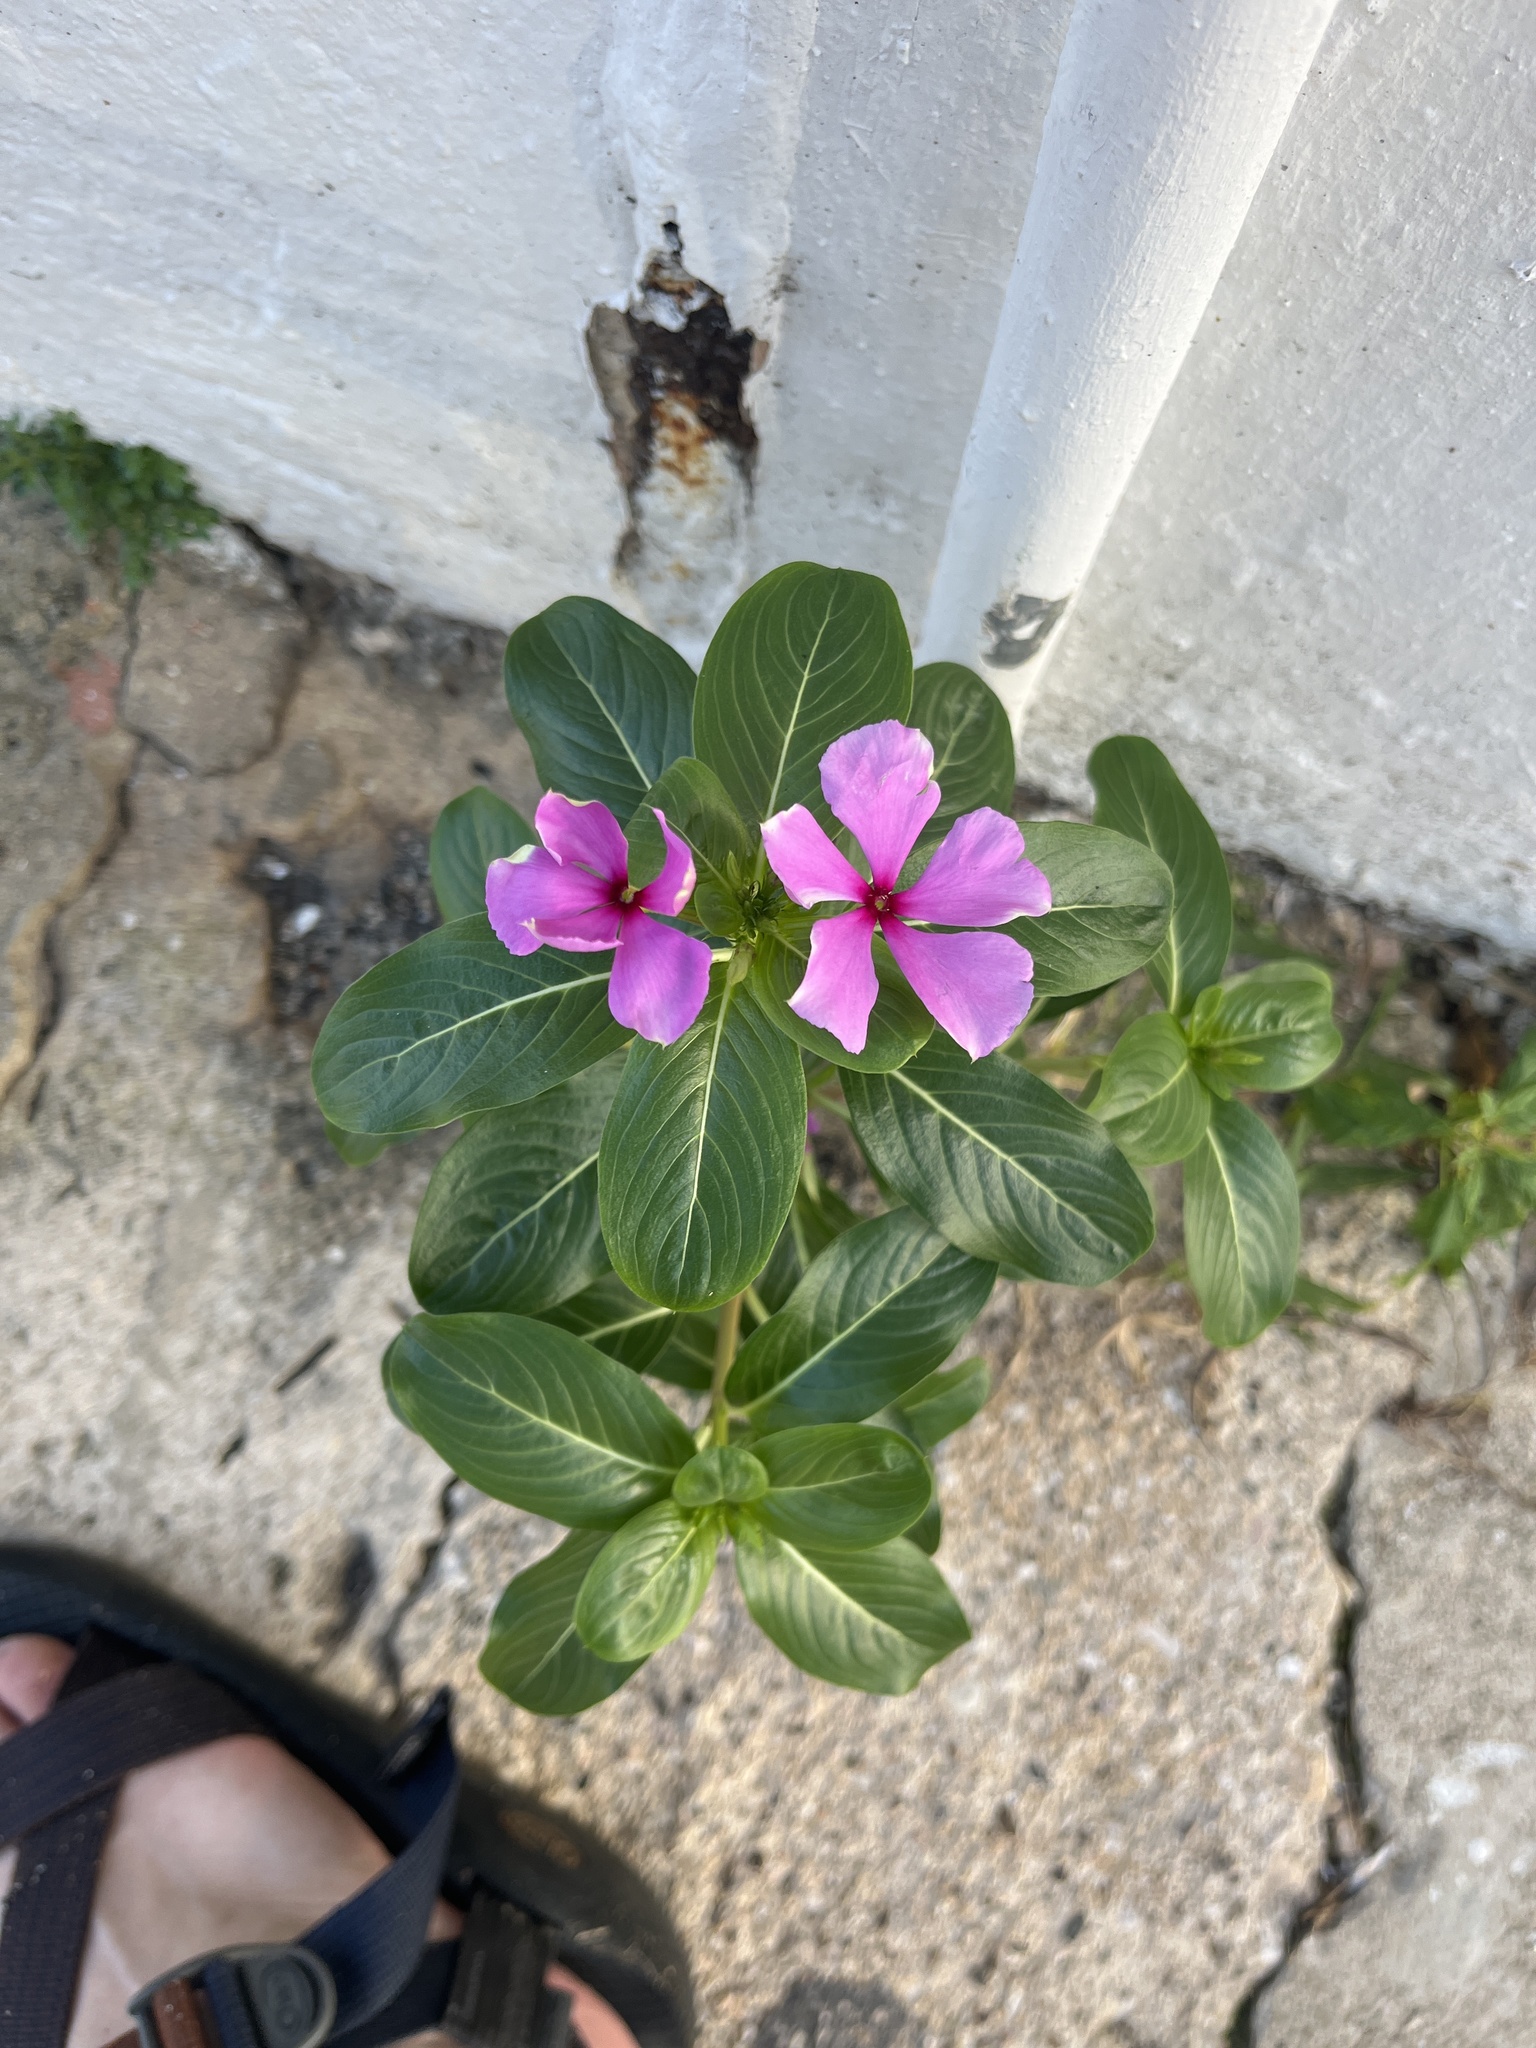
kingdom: Plantae
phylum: Tracheophyta
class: Magnoliopsida
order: Gentianales
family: Apocynaceae
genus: Catharanthus
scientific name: Catharanthus roseus
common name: Madagascar periwinkle
